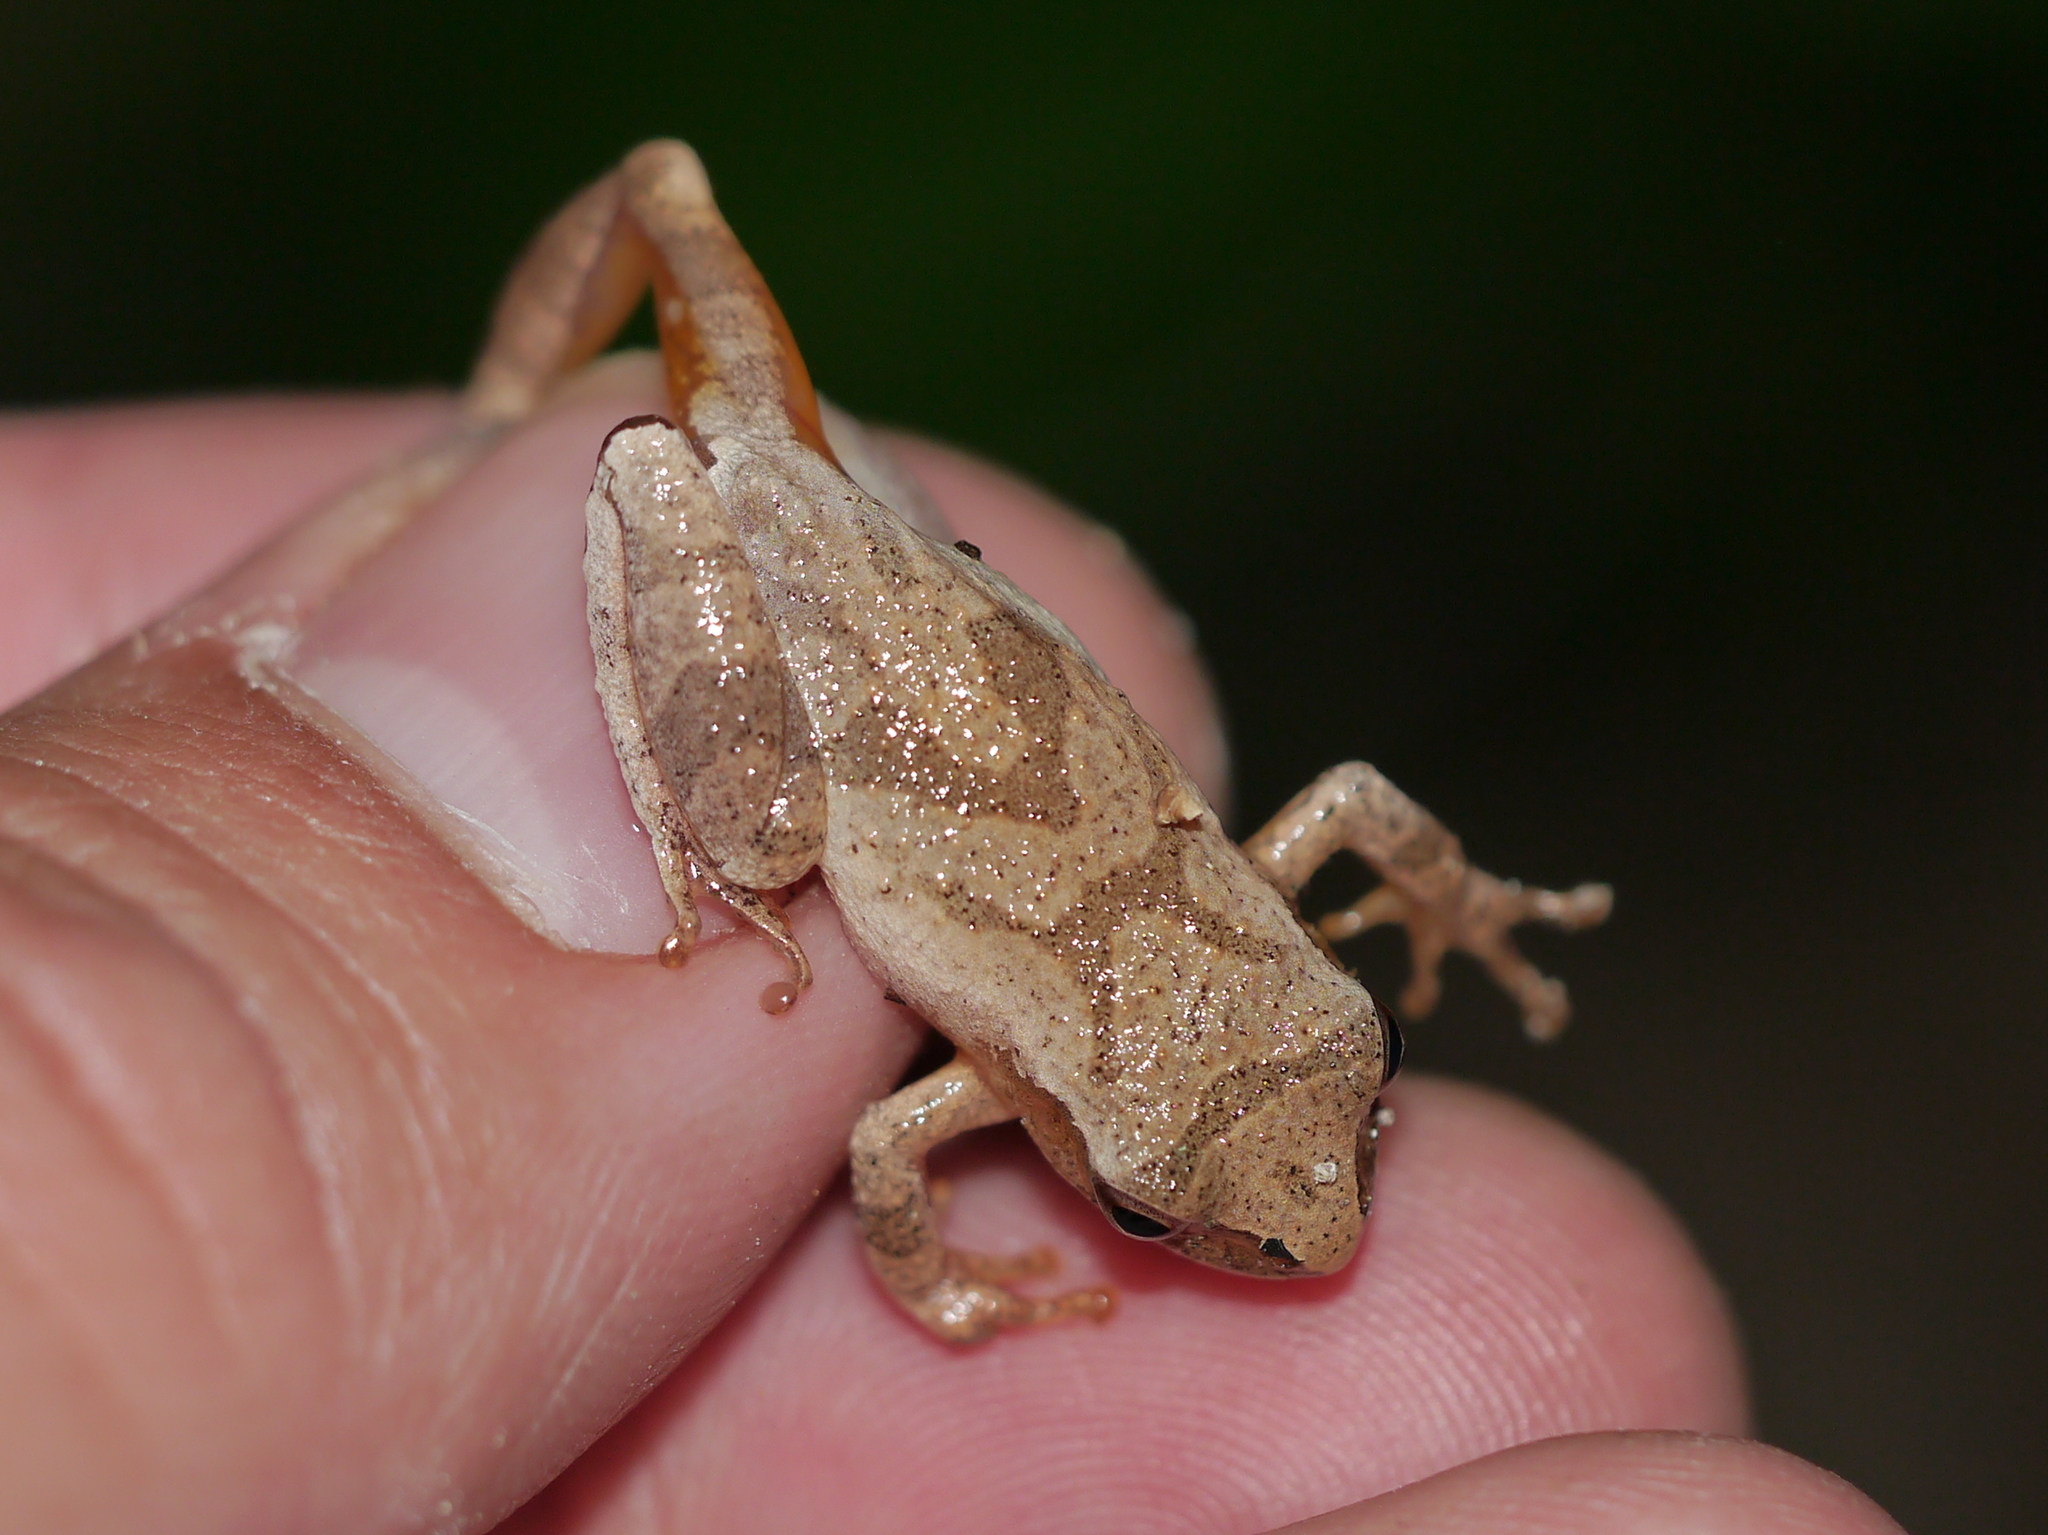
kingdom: Animalia
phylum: Chordata
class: Amphibia
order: Anura
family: Hylidae
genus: Pseudacris
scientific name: Pseudacris crucifer
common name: Spring peeper
